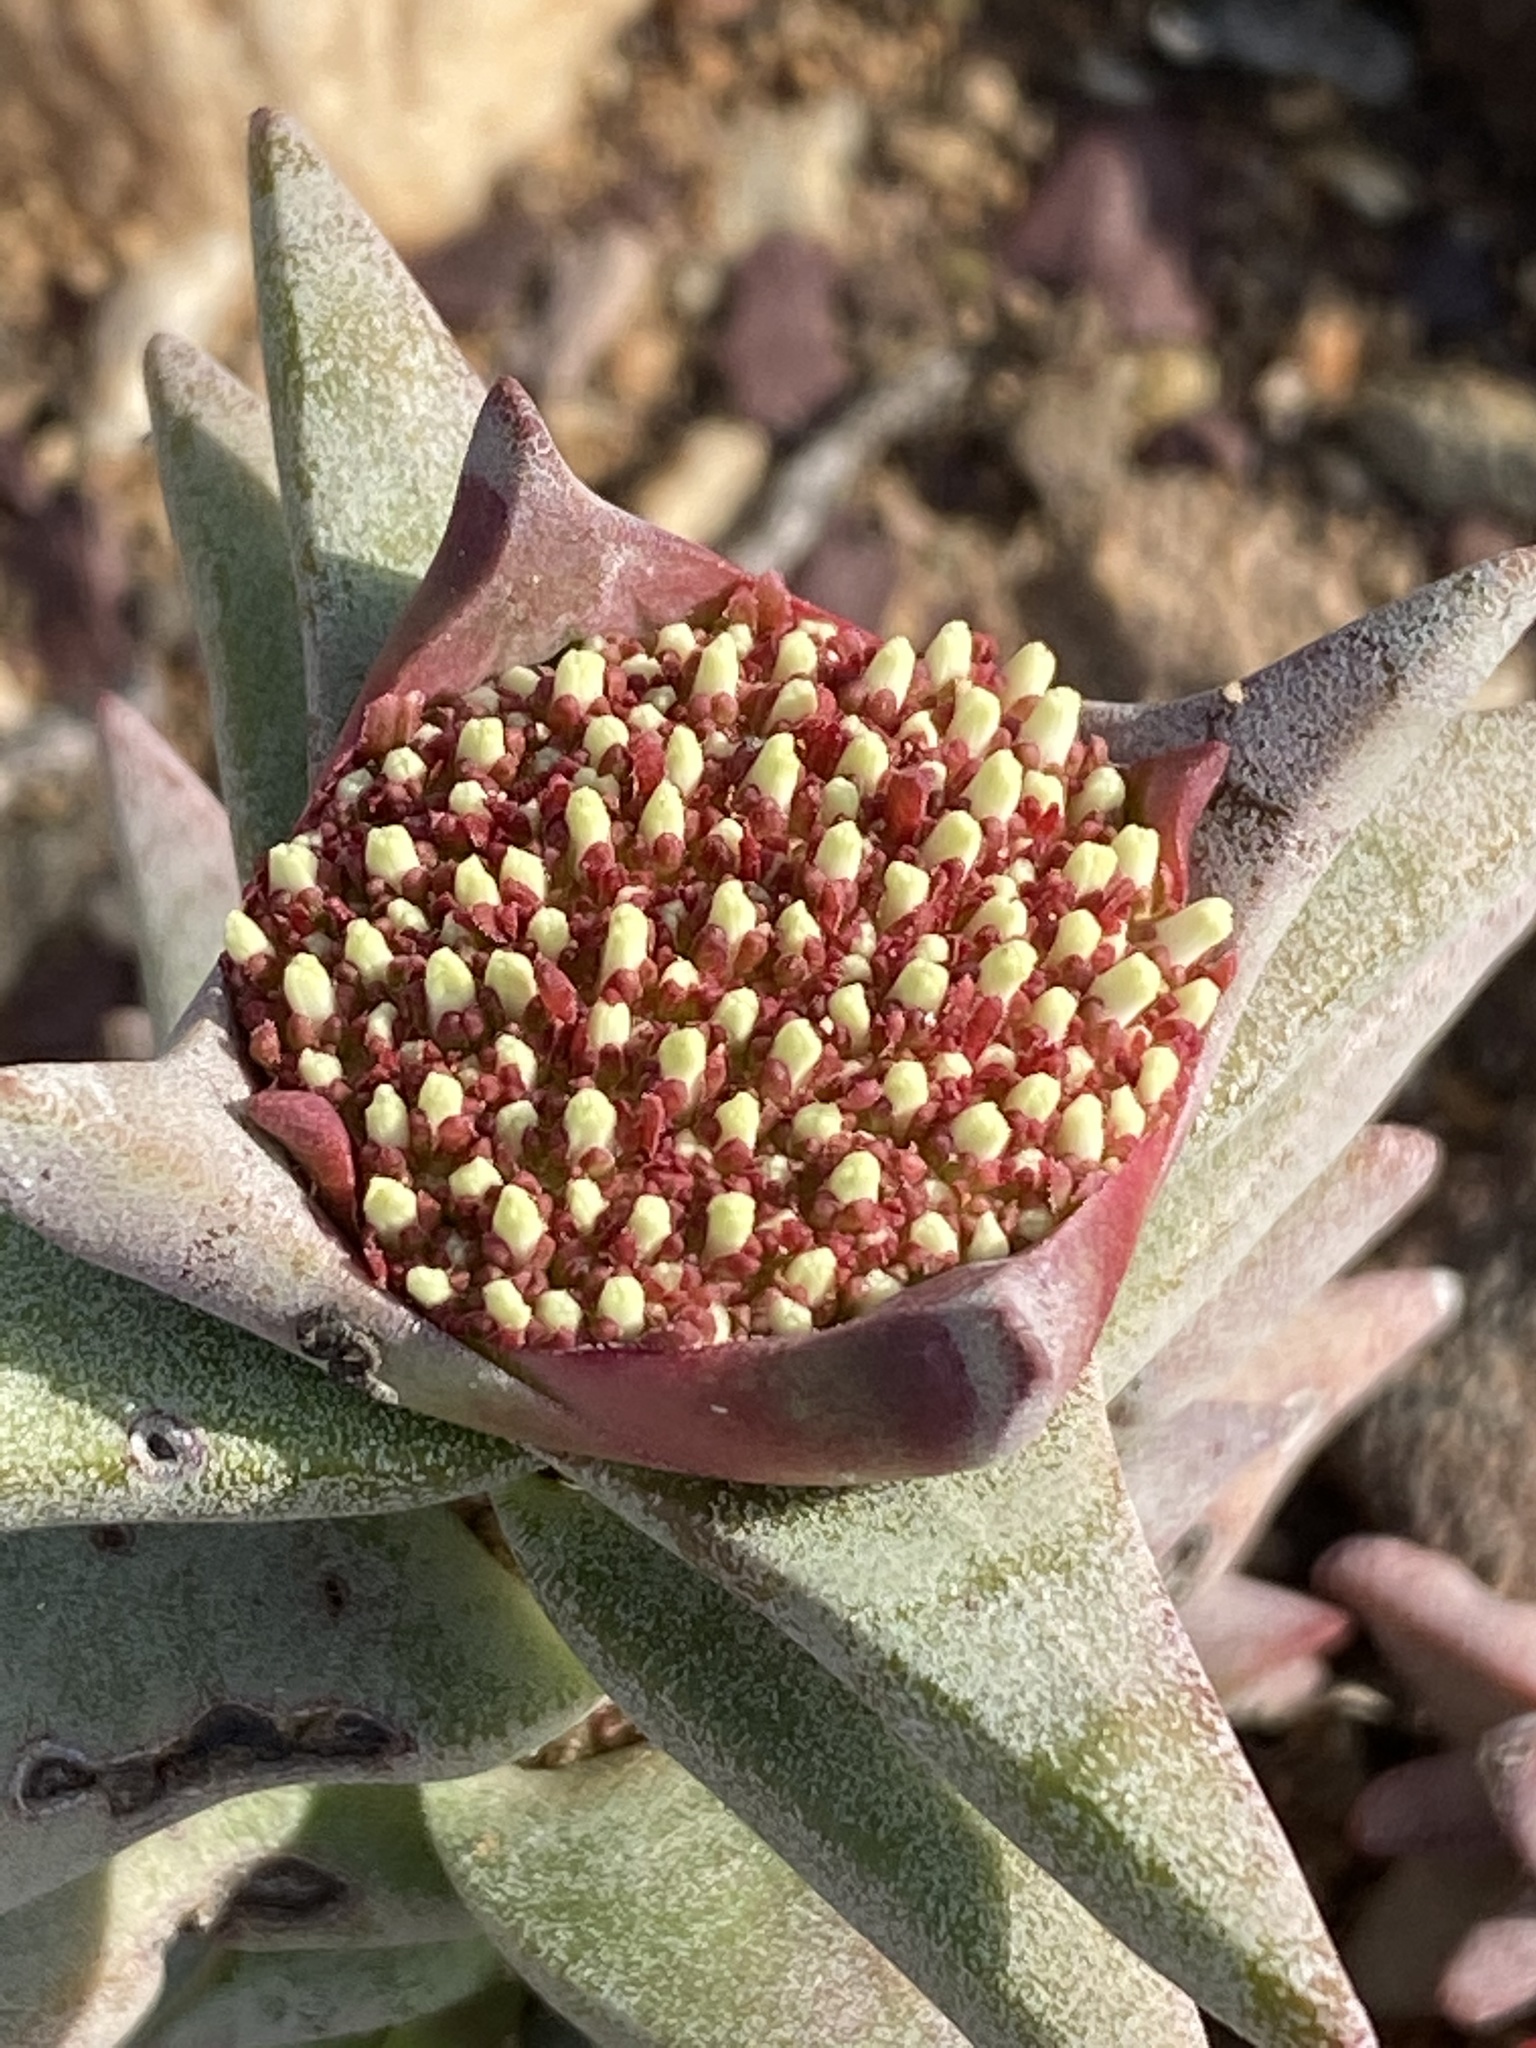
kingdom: Plantae
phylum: Tracheophyta
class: Magnoliopsida
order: Saxifragales
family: Crassulaceae
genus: Crassula
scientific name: Crassula congesta
